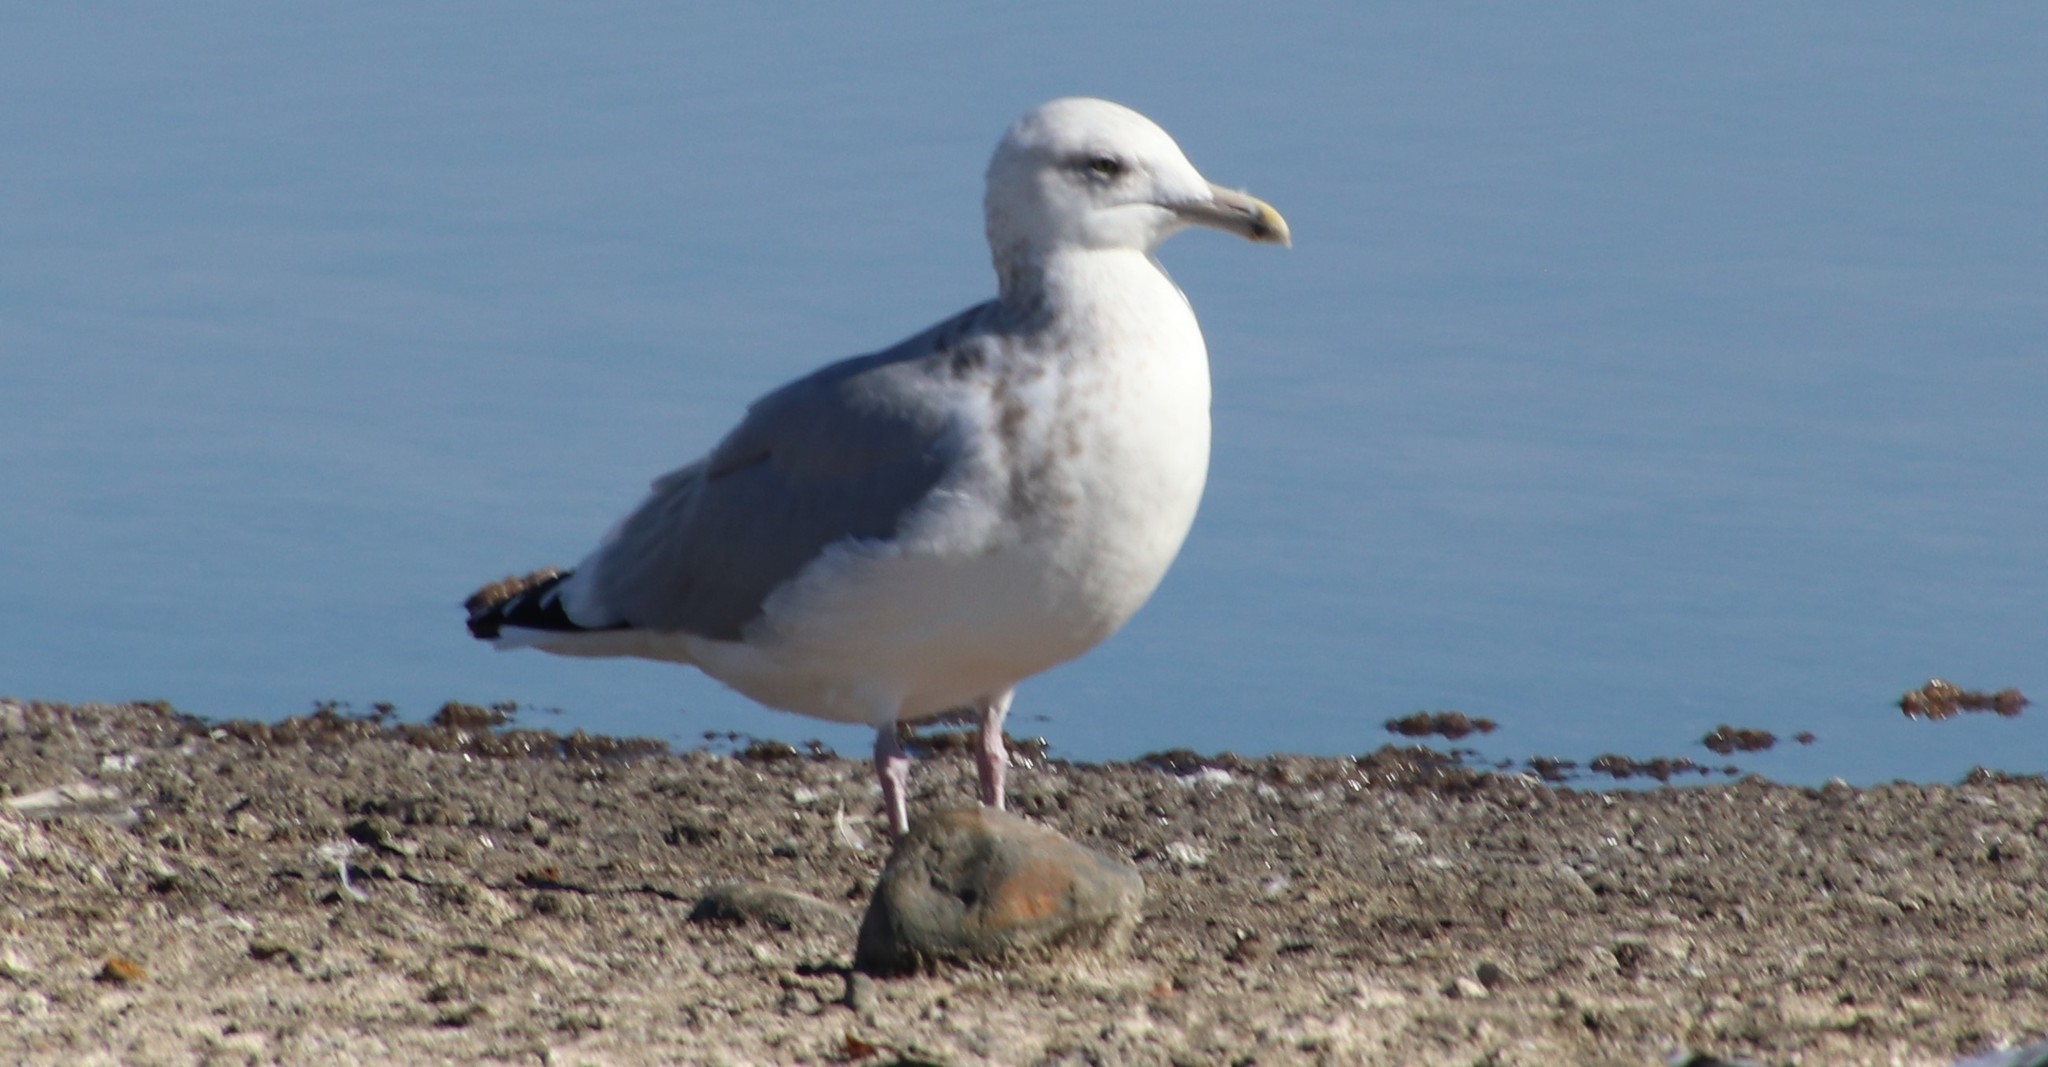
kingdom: Animalia
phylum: Chordata
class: Aves
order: Charadriiformes
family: Laridae
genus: Larus
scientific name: Larus argentatus
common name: Herring gull
